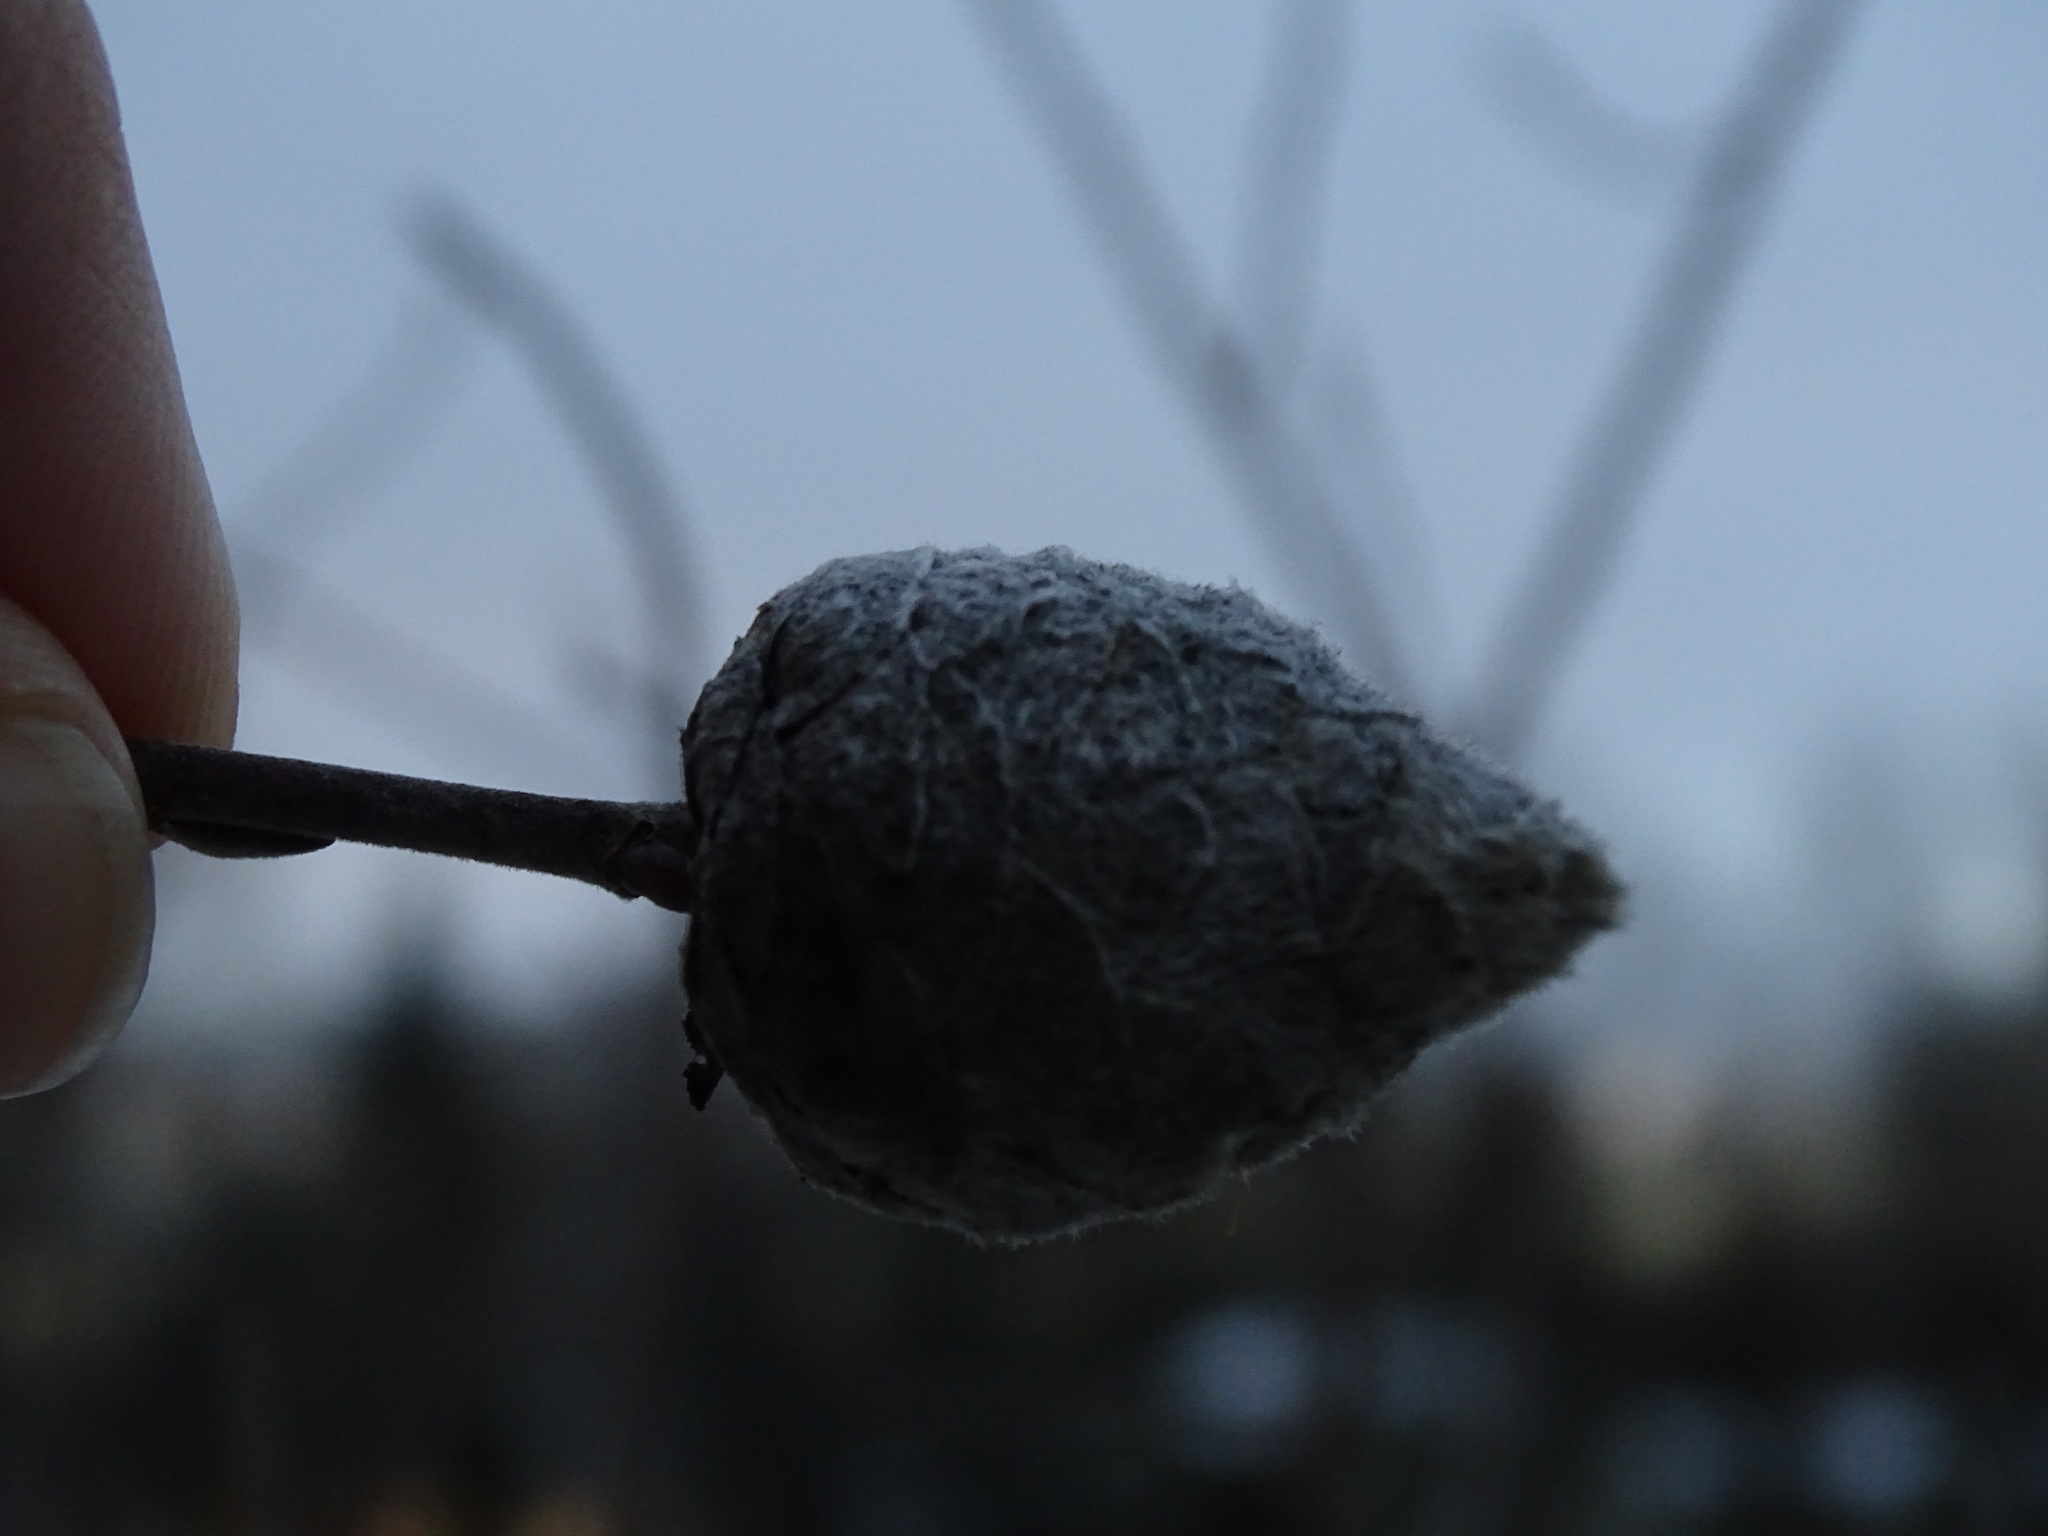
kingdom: Animalia
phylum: Arthropoda
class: Insecta
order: Diptera
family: Cecidomyiidae
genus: Rabdophaga
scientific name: Rabdophaga strobiloides
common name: Willow pinecone gall midge
